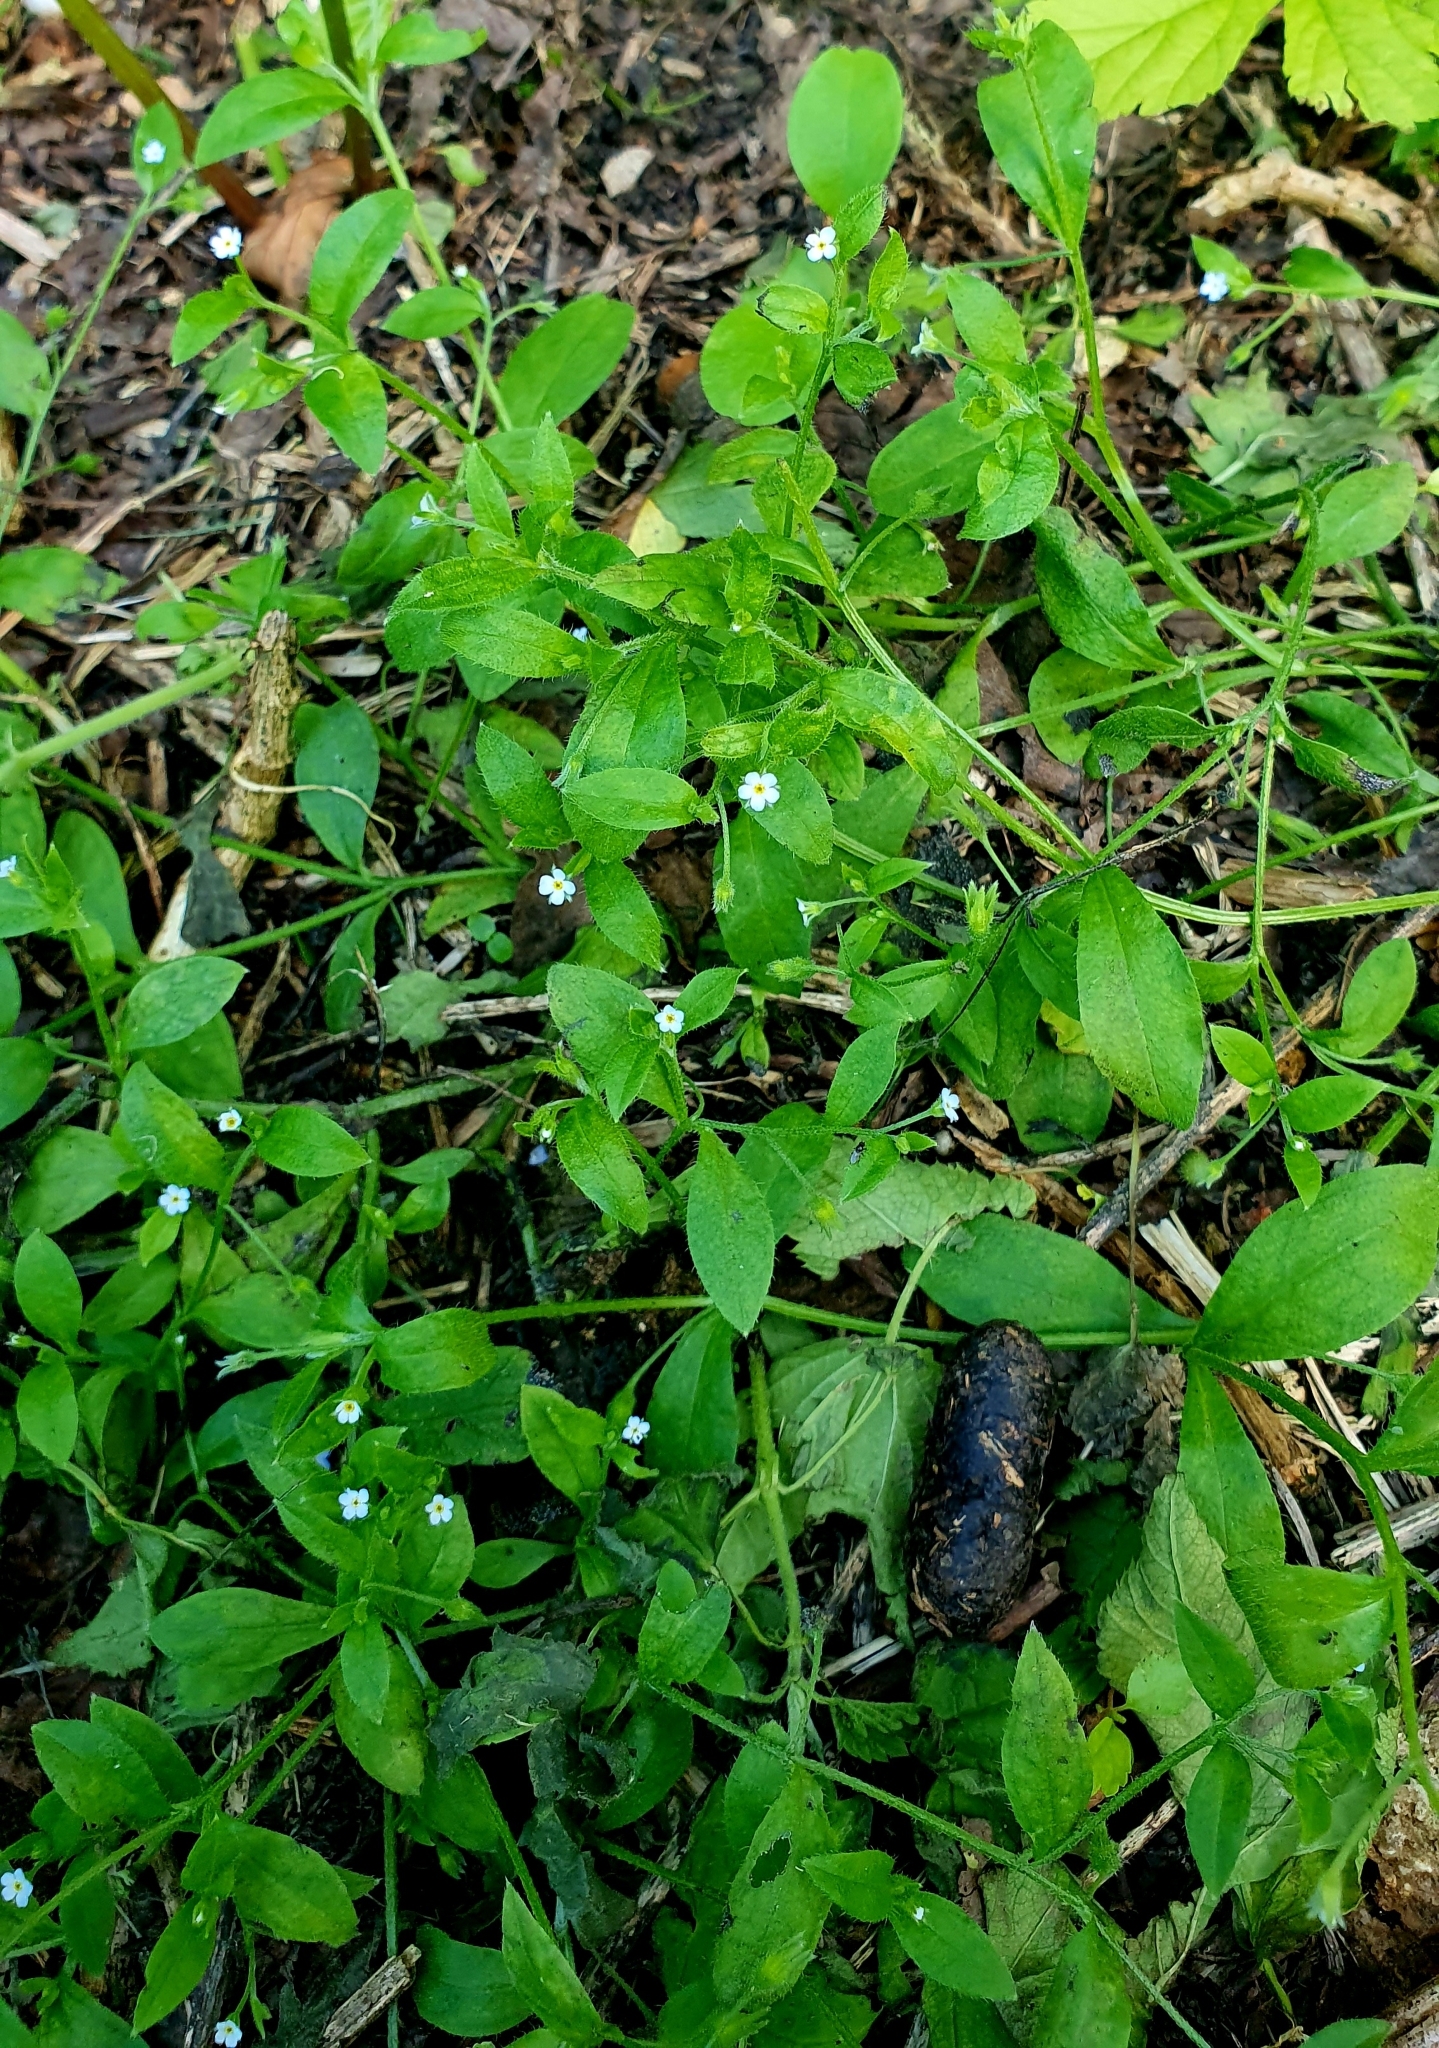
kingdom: Plantae
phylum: Tracheophyta
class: Magnoliopsida
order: Boraginales
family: Boraginaceae
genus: Myosotis
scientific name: Myosotis sparsiflora
